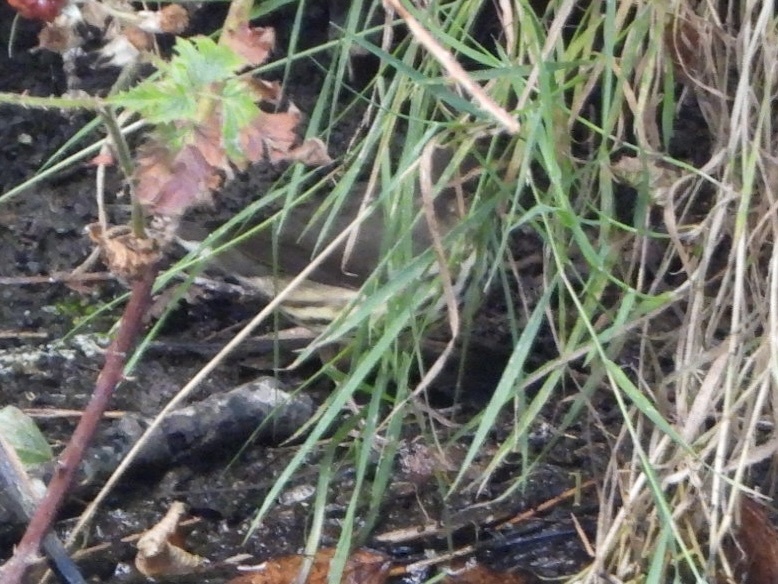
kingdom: Animalia
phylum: Chordata
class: Aves
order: Passeriformes
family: Parulidae
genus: Parkesia
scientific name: Parkesia noveboracensis
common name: Northern waterthrush
